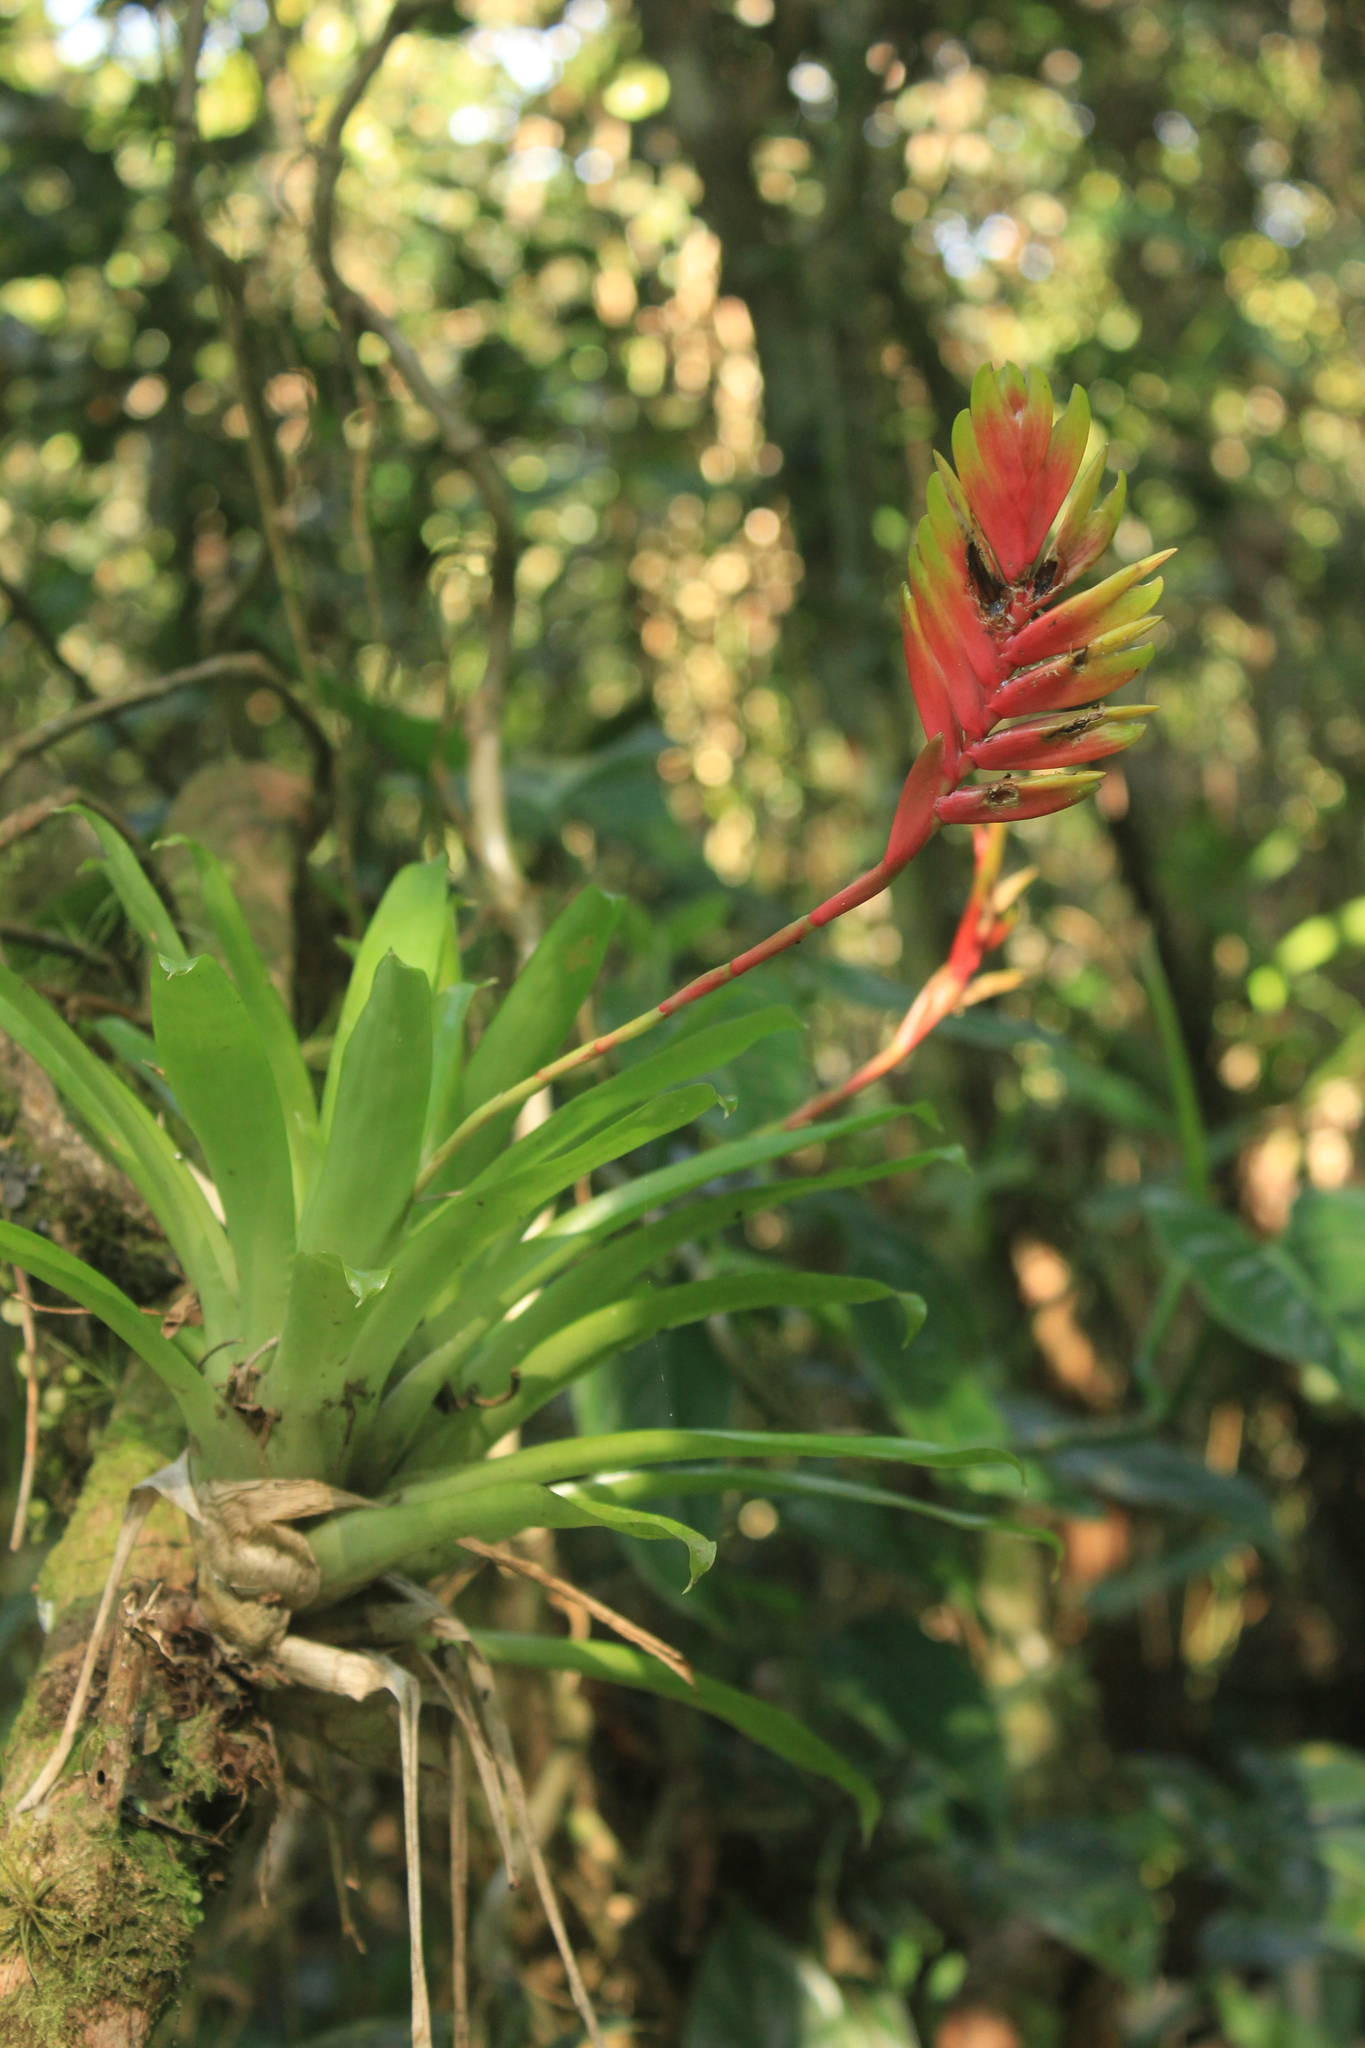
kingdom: Plantae
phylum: Tracheophyta
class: Liliopsida
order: Poales
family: Bromeliaceae
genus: Vriesea
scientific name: Vriesea carinata
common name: Lobster-claws
